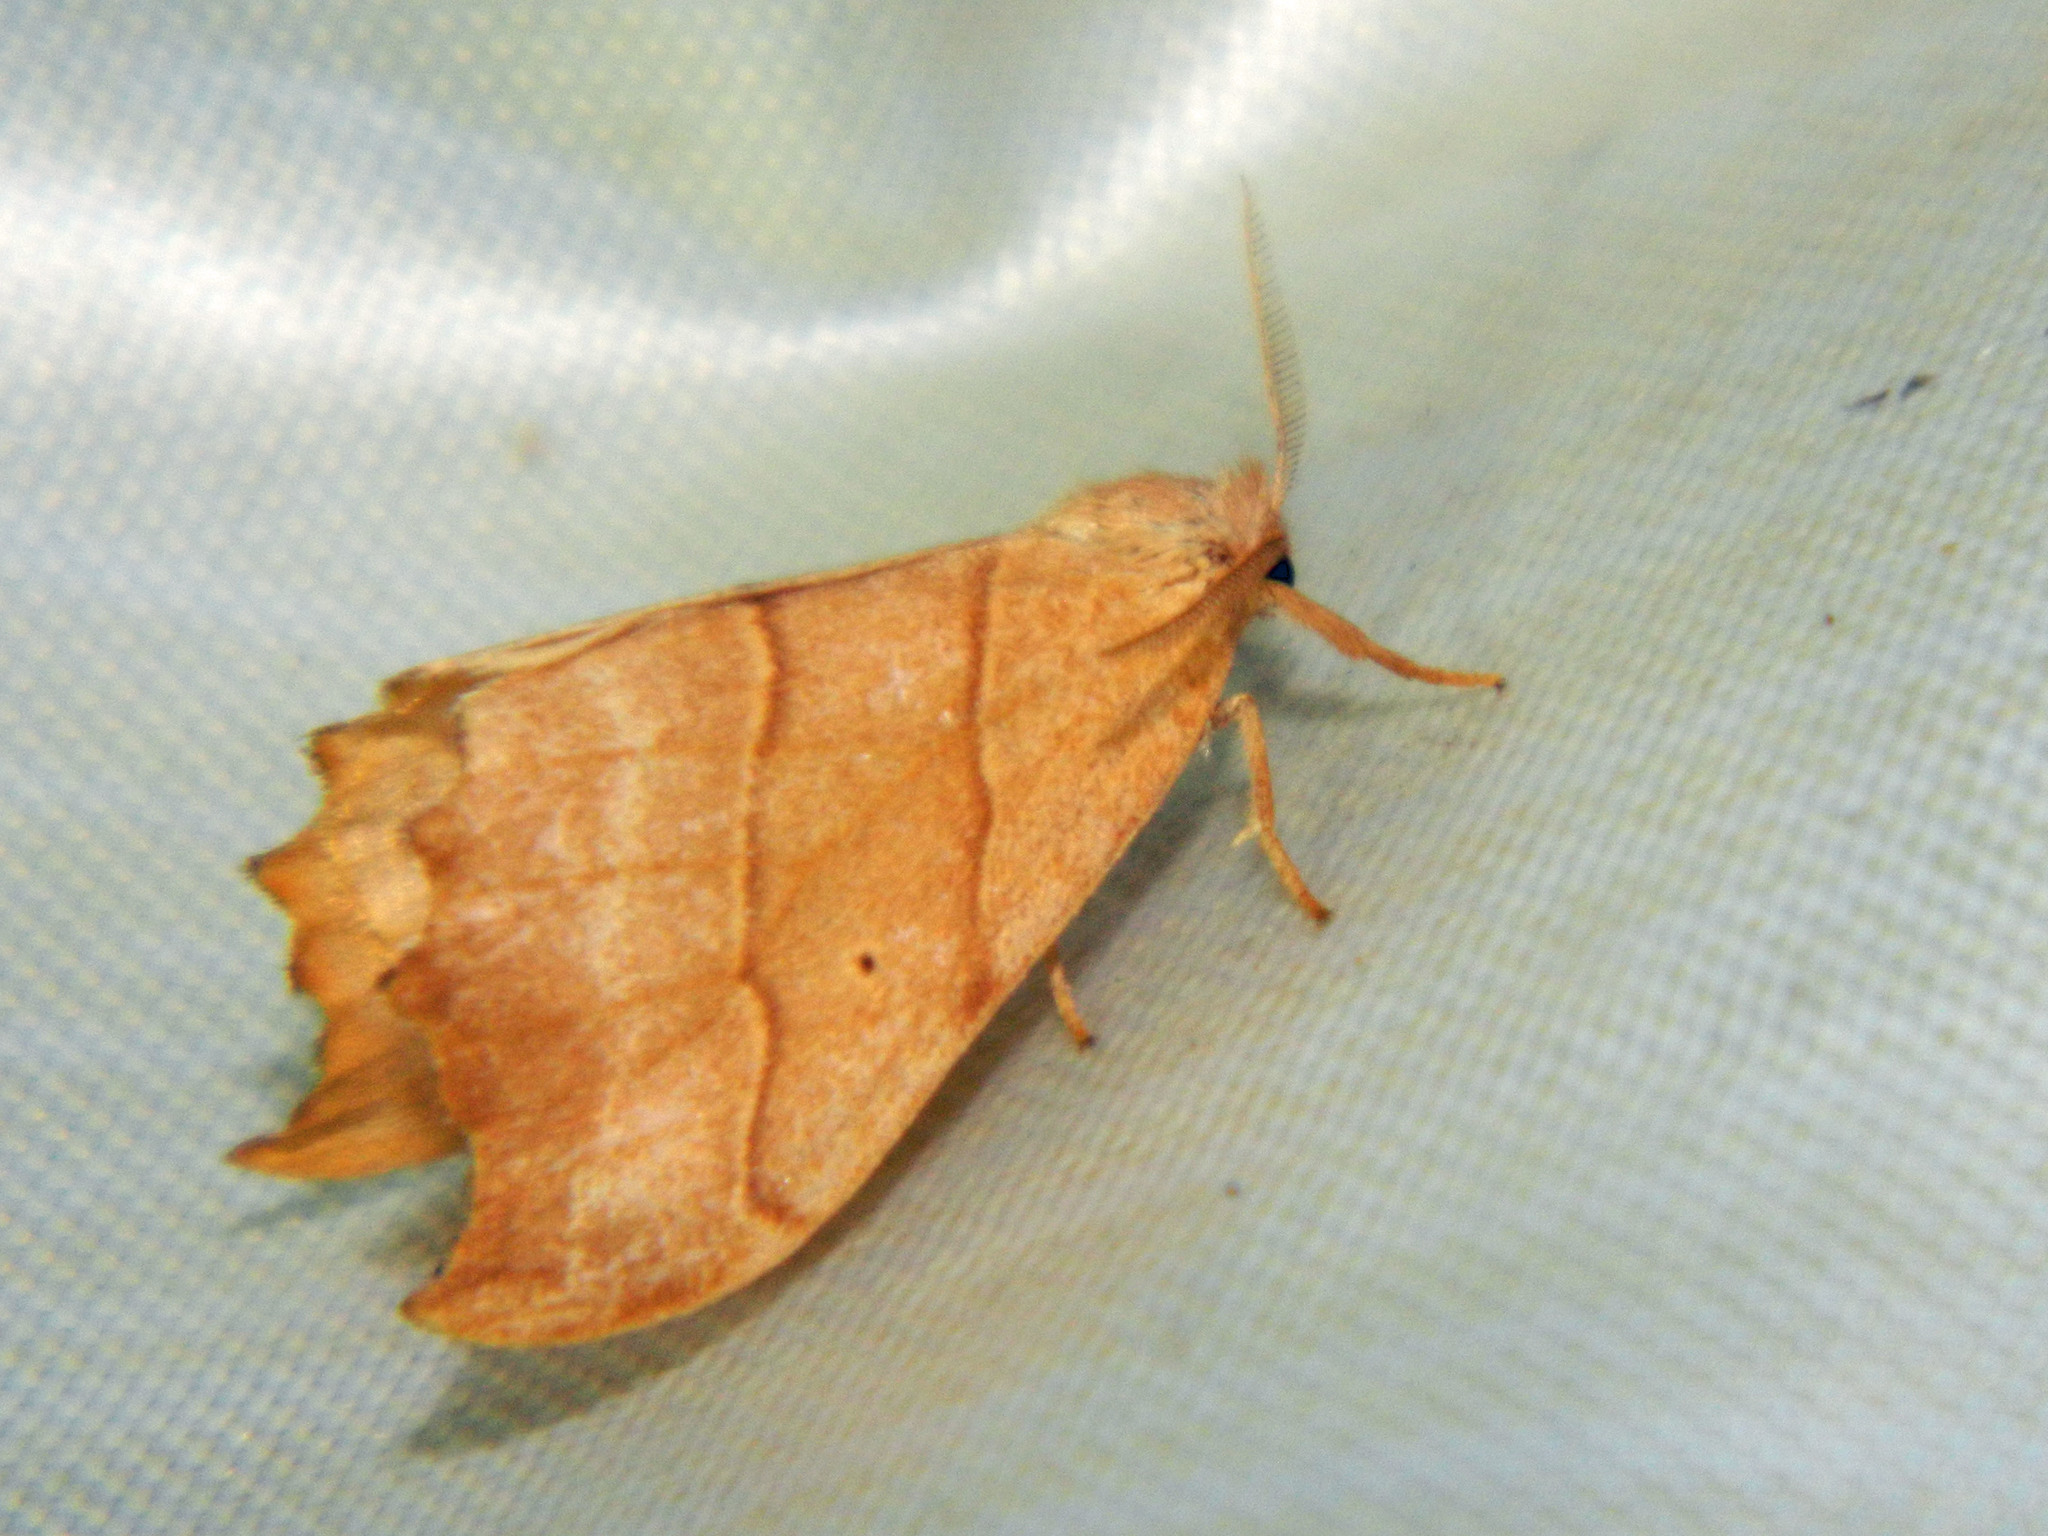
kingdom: Animalia
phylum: Arthropoda
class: Insecta
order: Lepidoptera
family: Drepanidae
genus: Falcaria
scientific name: Falcaria bilineata
